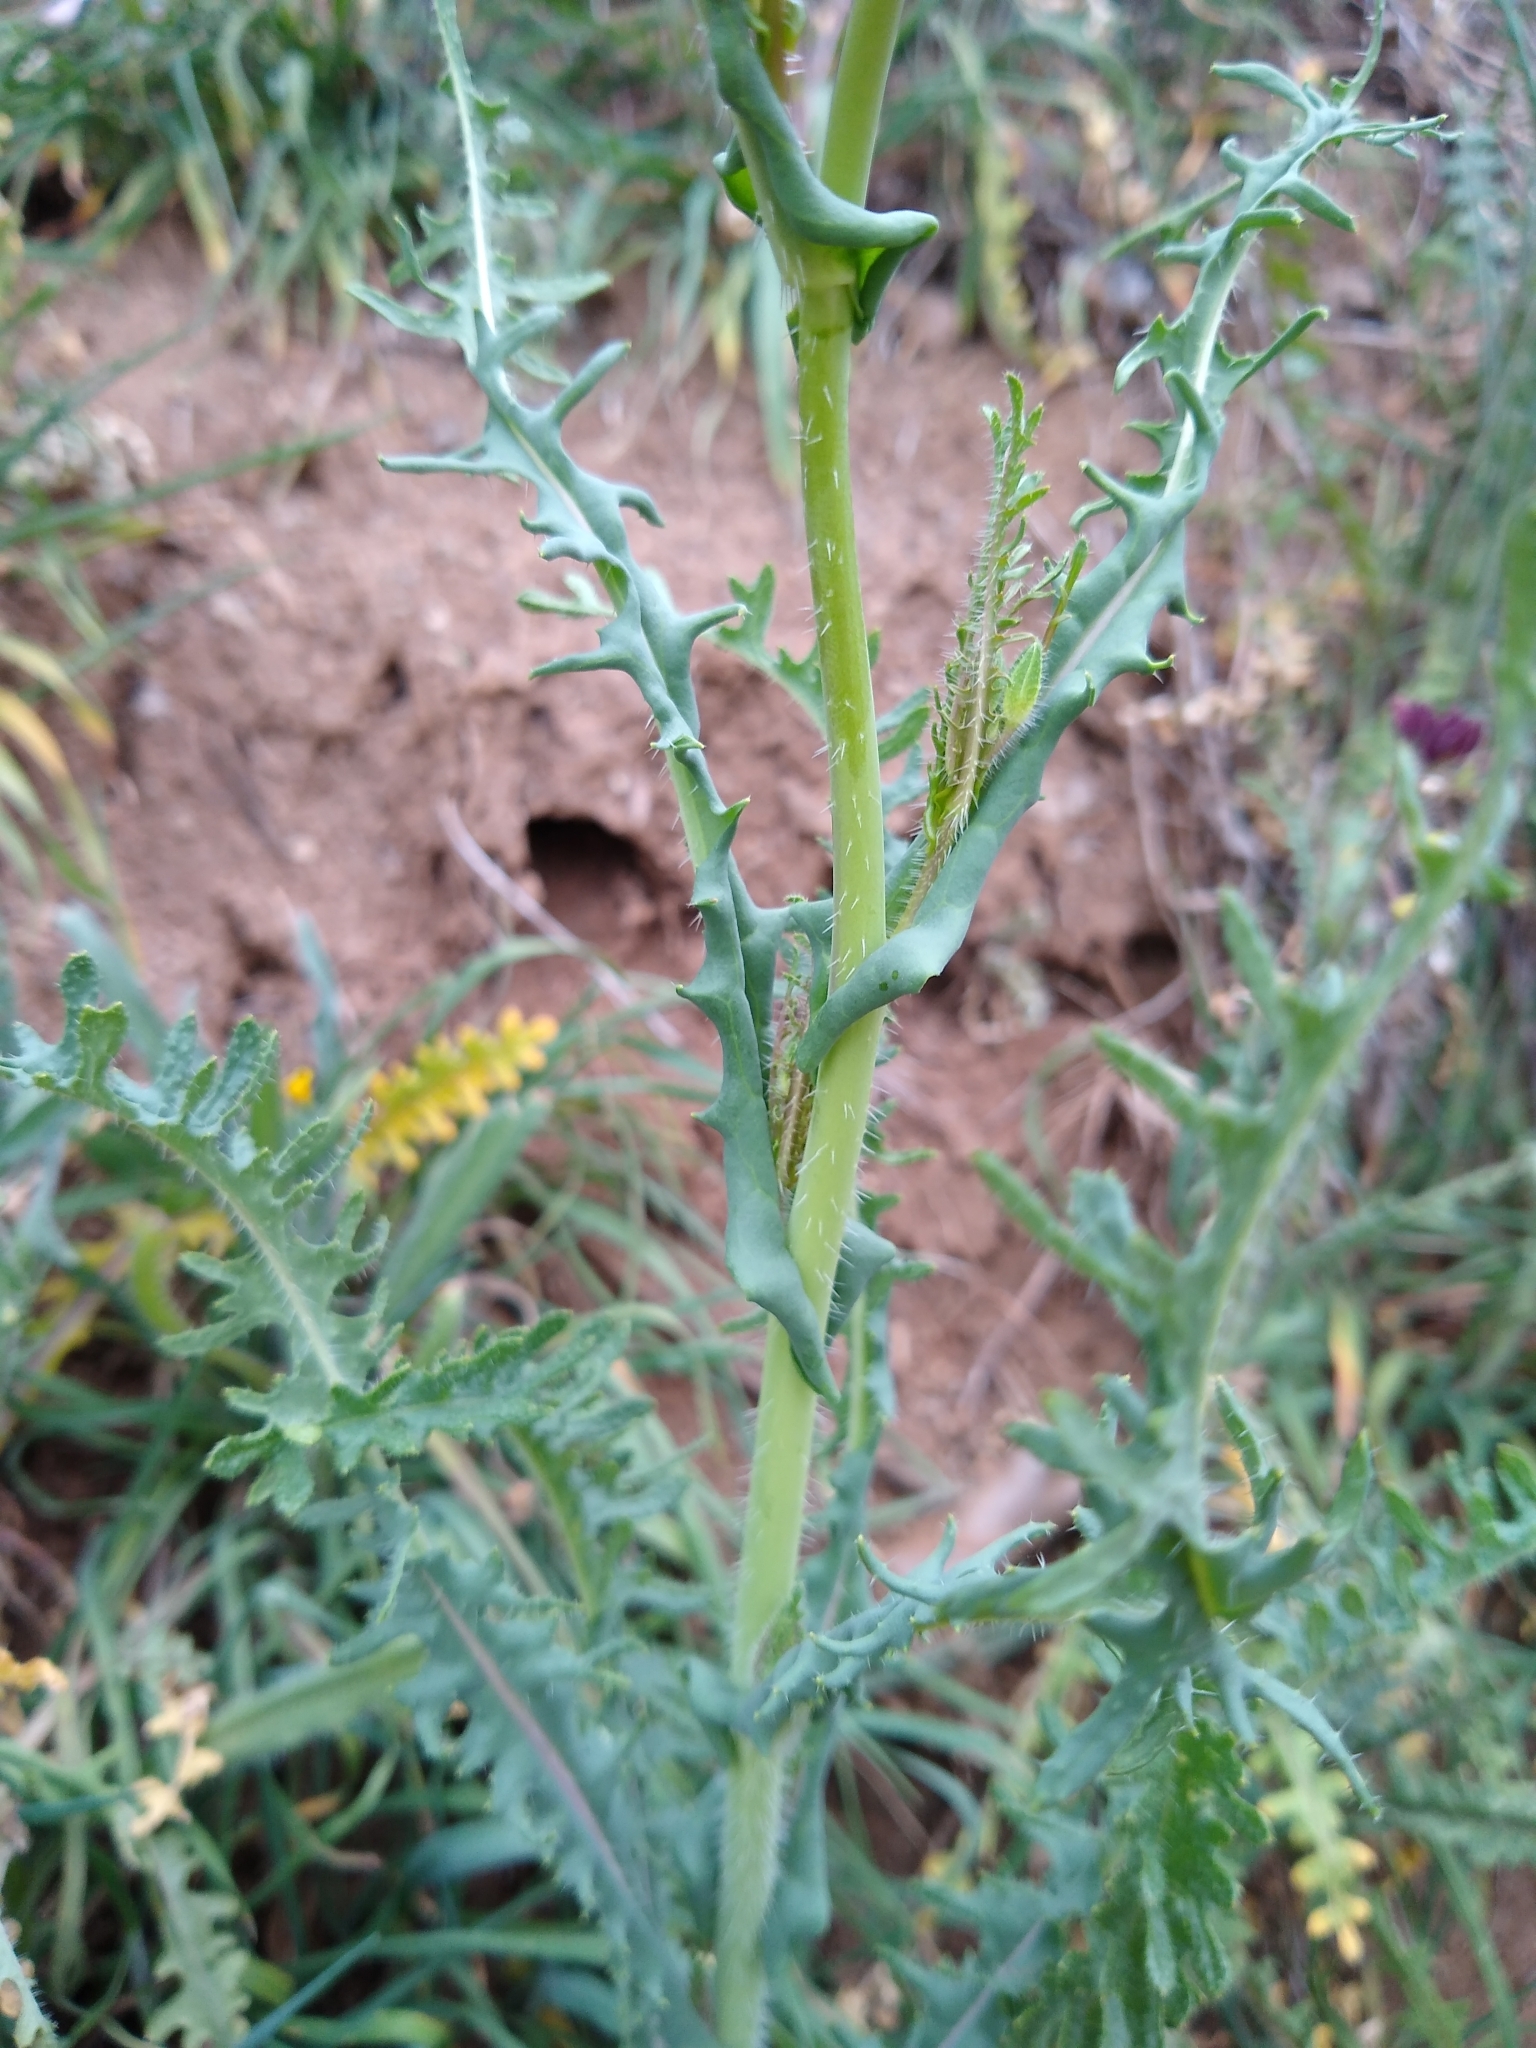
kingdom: Plantae
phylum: Tracheophyta
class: Magnoliopsida
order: Brassicales
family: Brassicaceae
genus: Streptanthus
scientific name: Streptanthus coulteri
